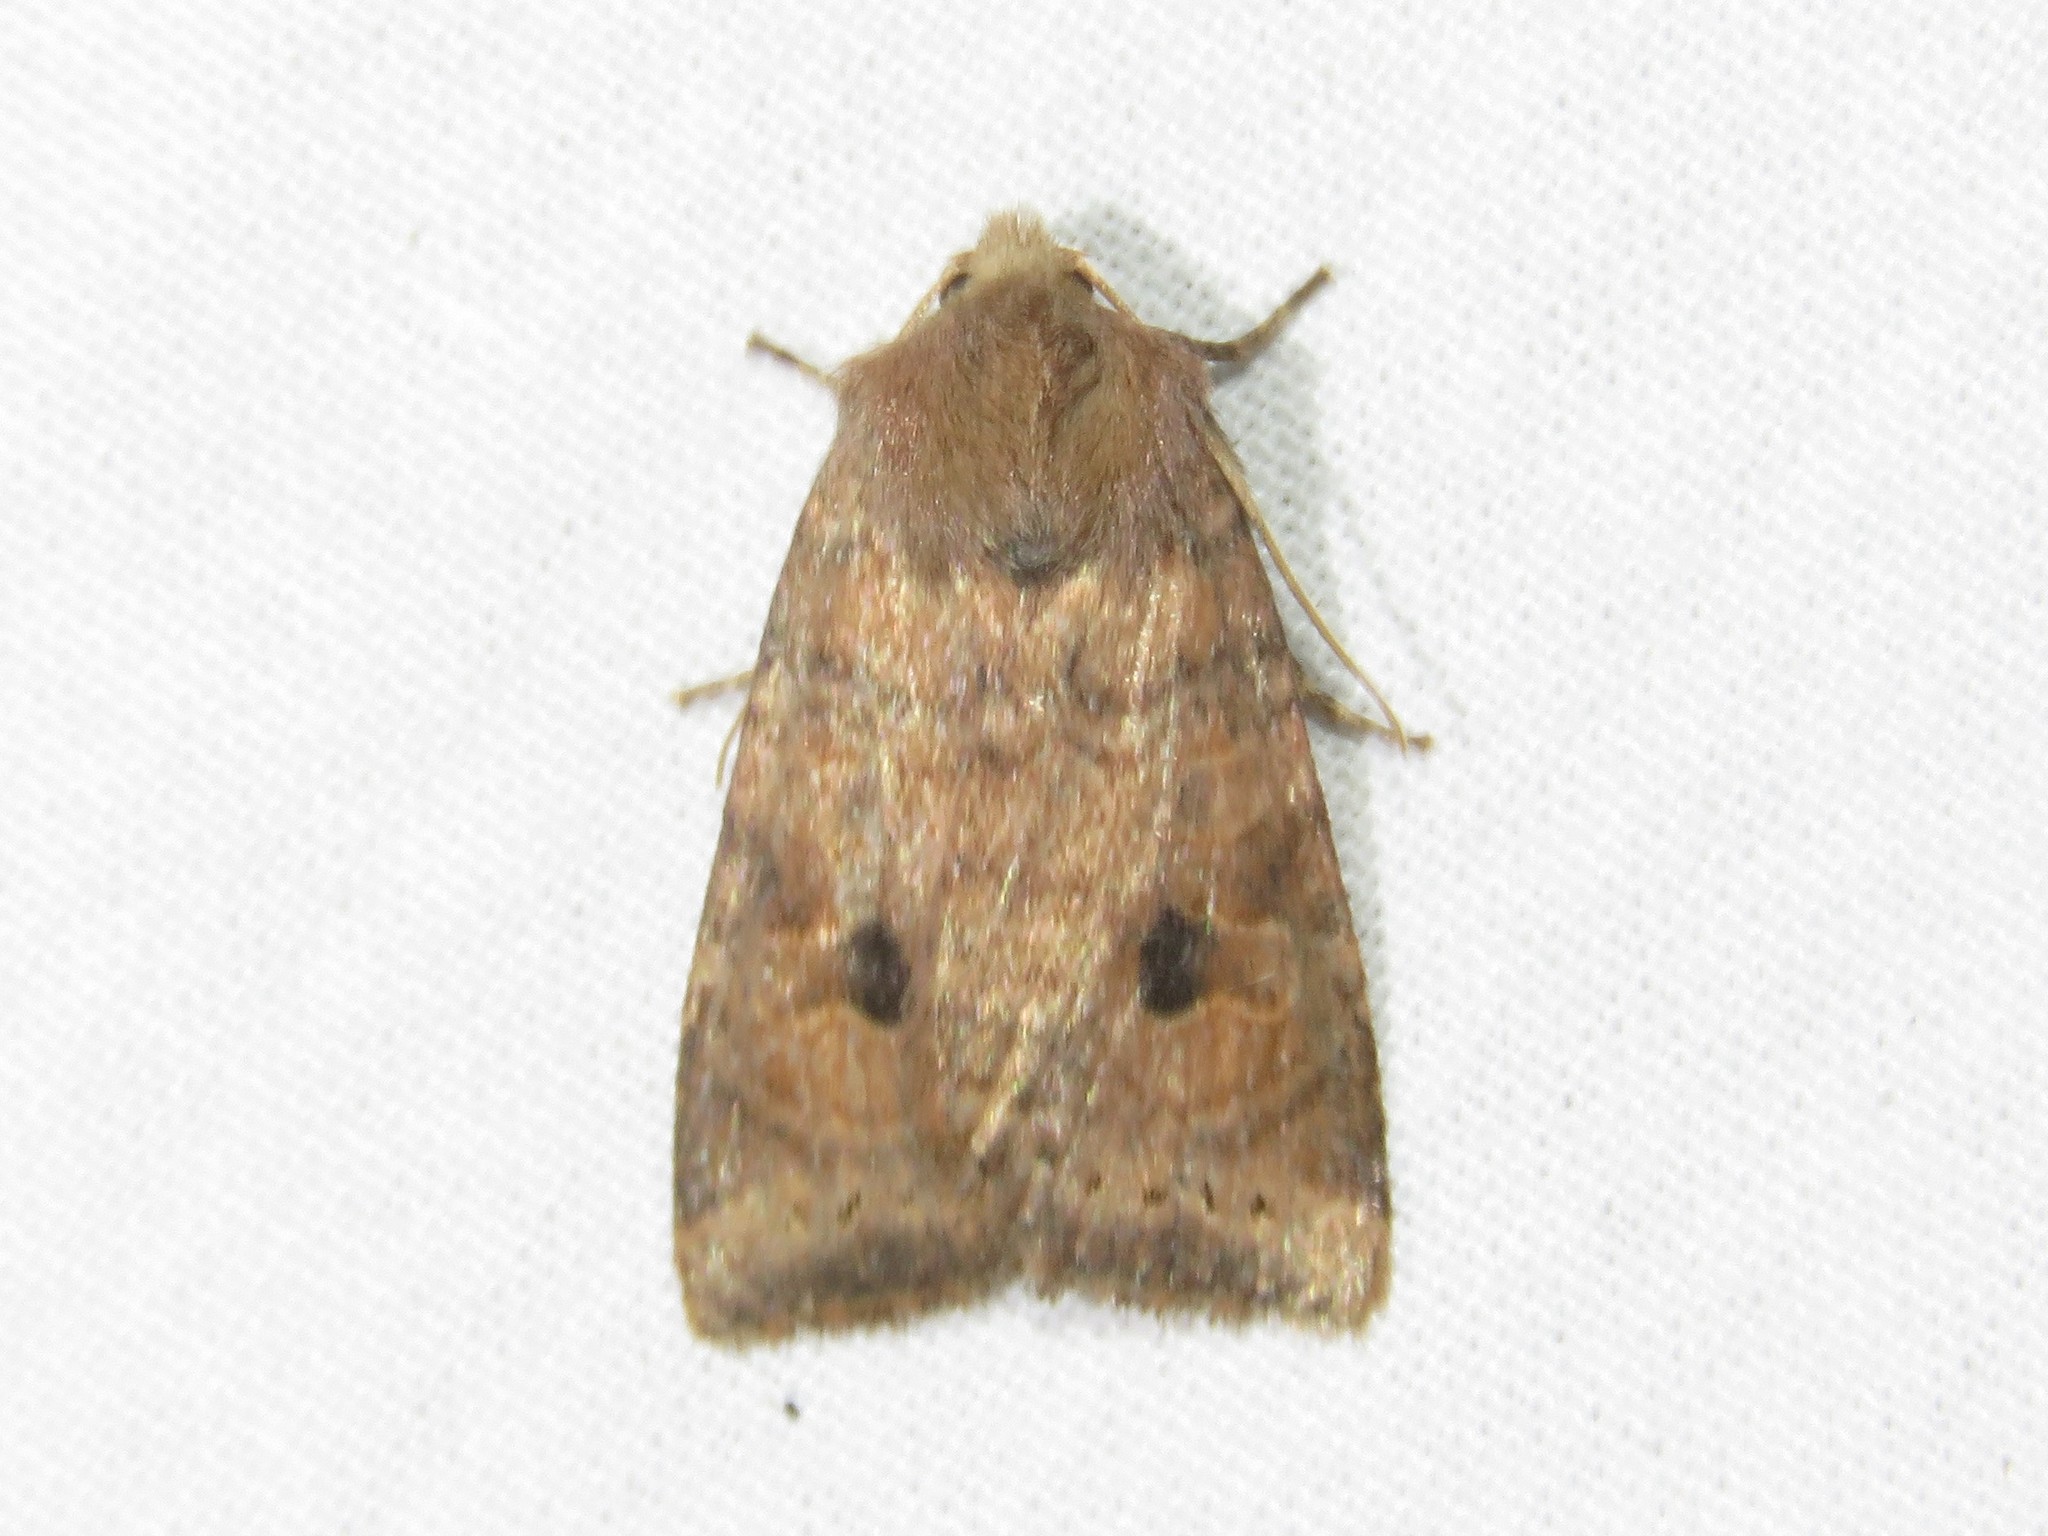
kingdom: Animalia
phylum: Arthropoda
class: Insecta
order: Lepidoptera
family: Noctuidae
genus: Anathix
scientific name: Anathix puta
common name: Puta sallow
